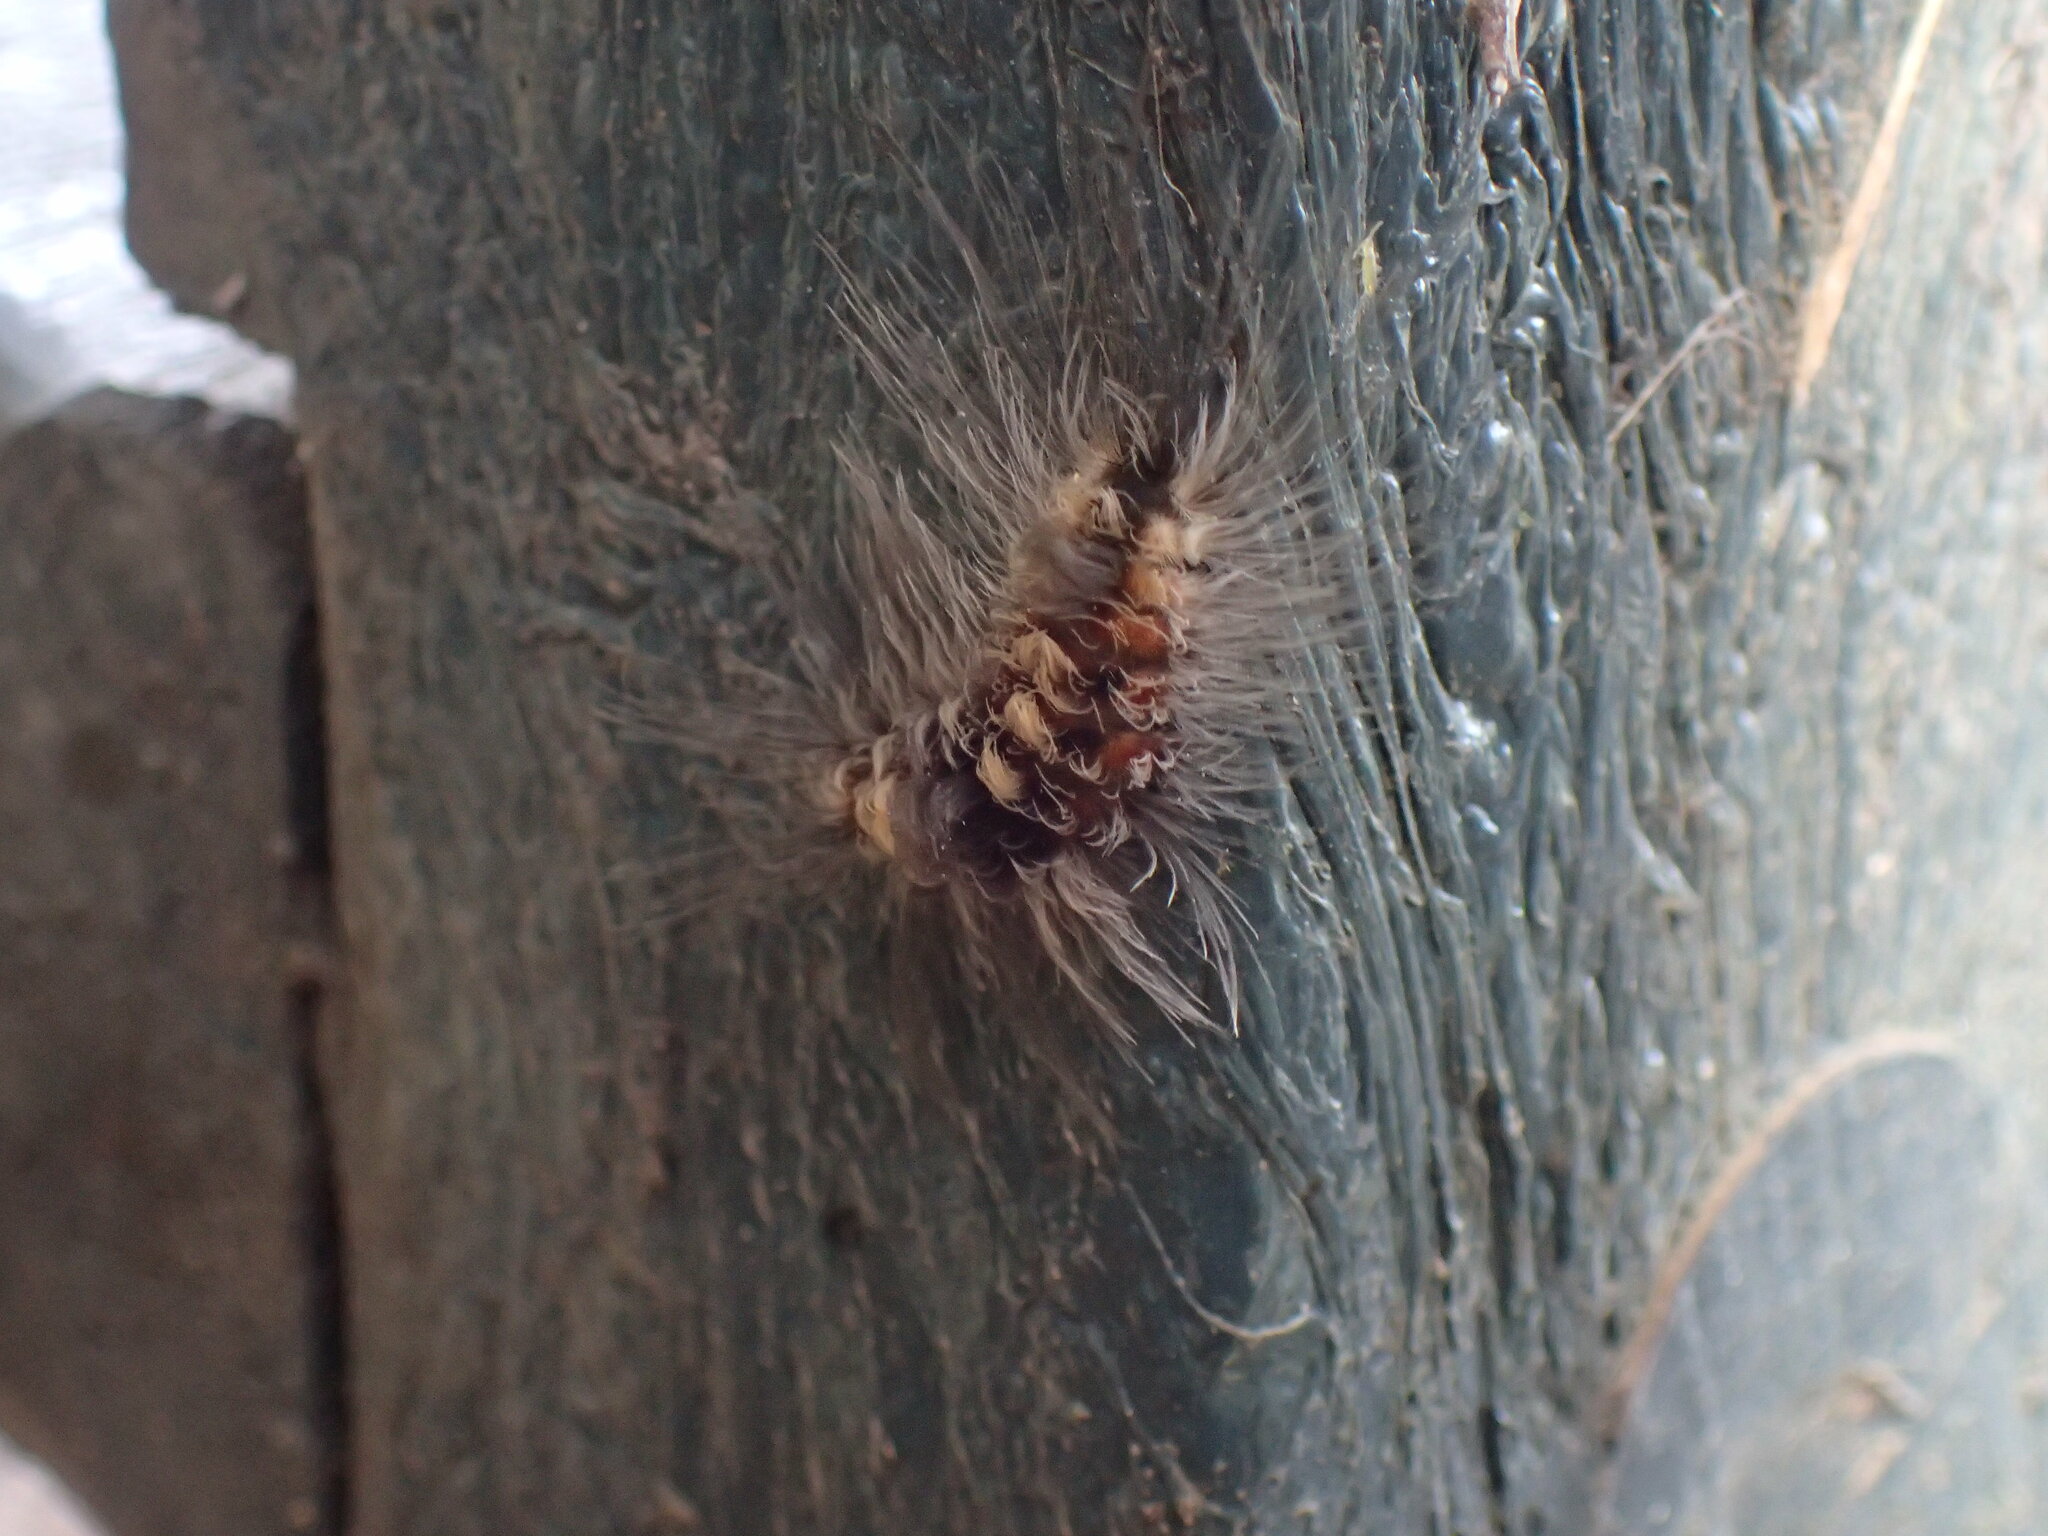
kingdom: Animalia
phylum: Arthropoda
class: Insecta
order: Lepidoptera
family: Erebidae
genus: Tumicla
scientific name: Tumicla sagenaria
